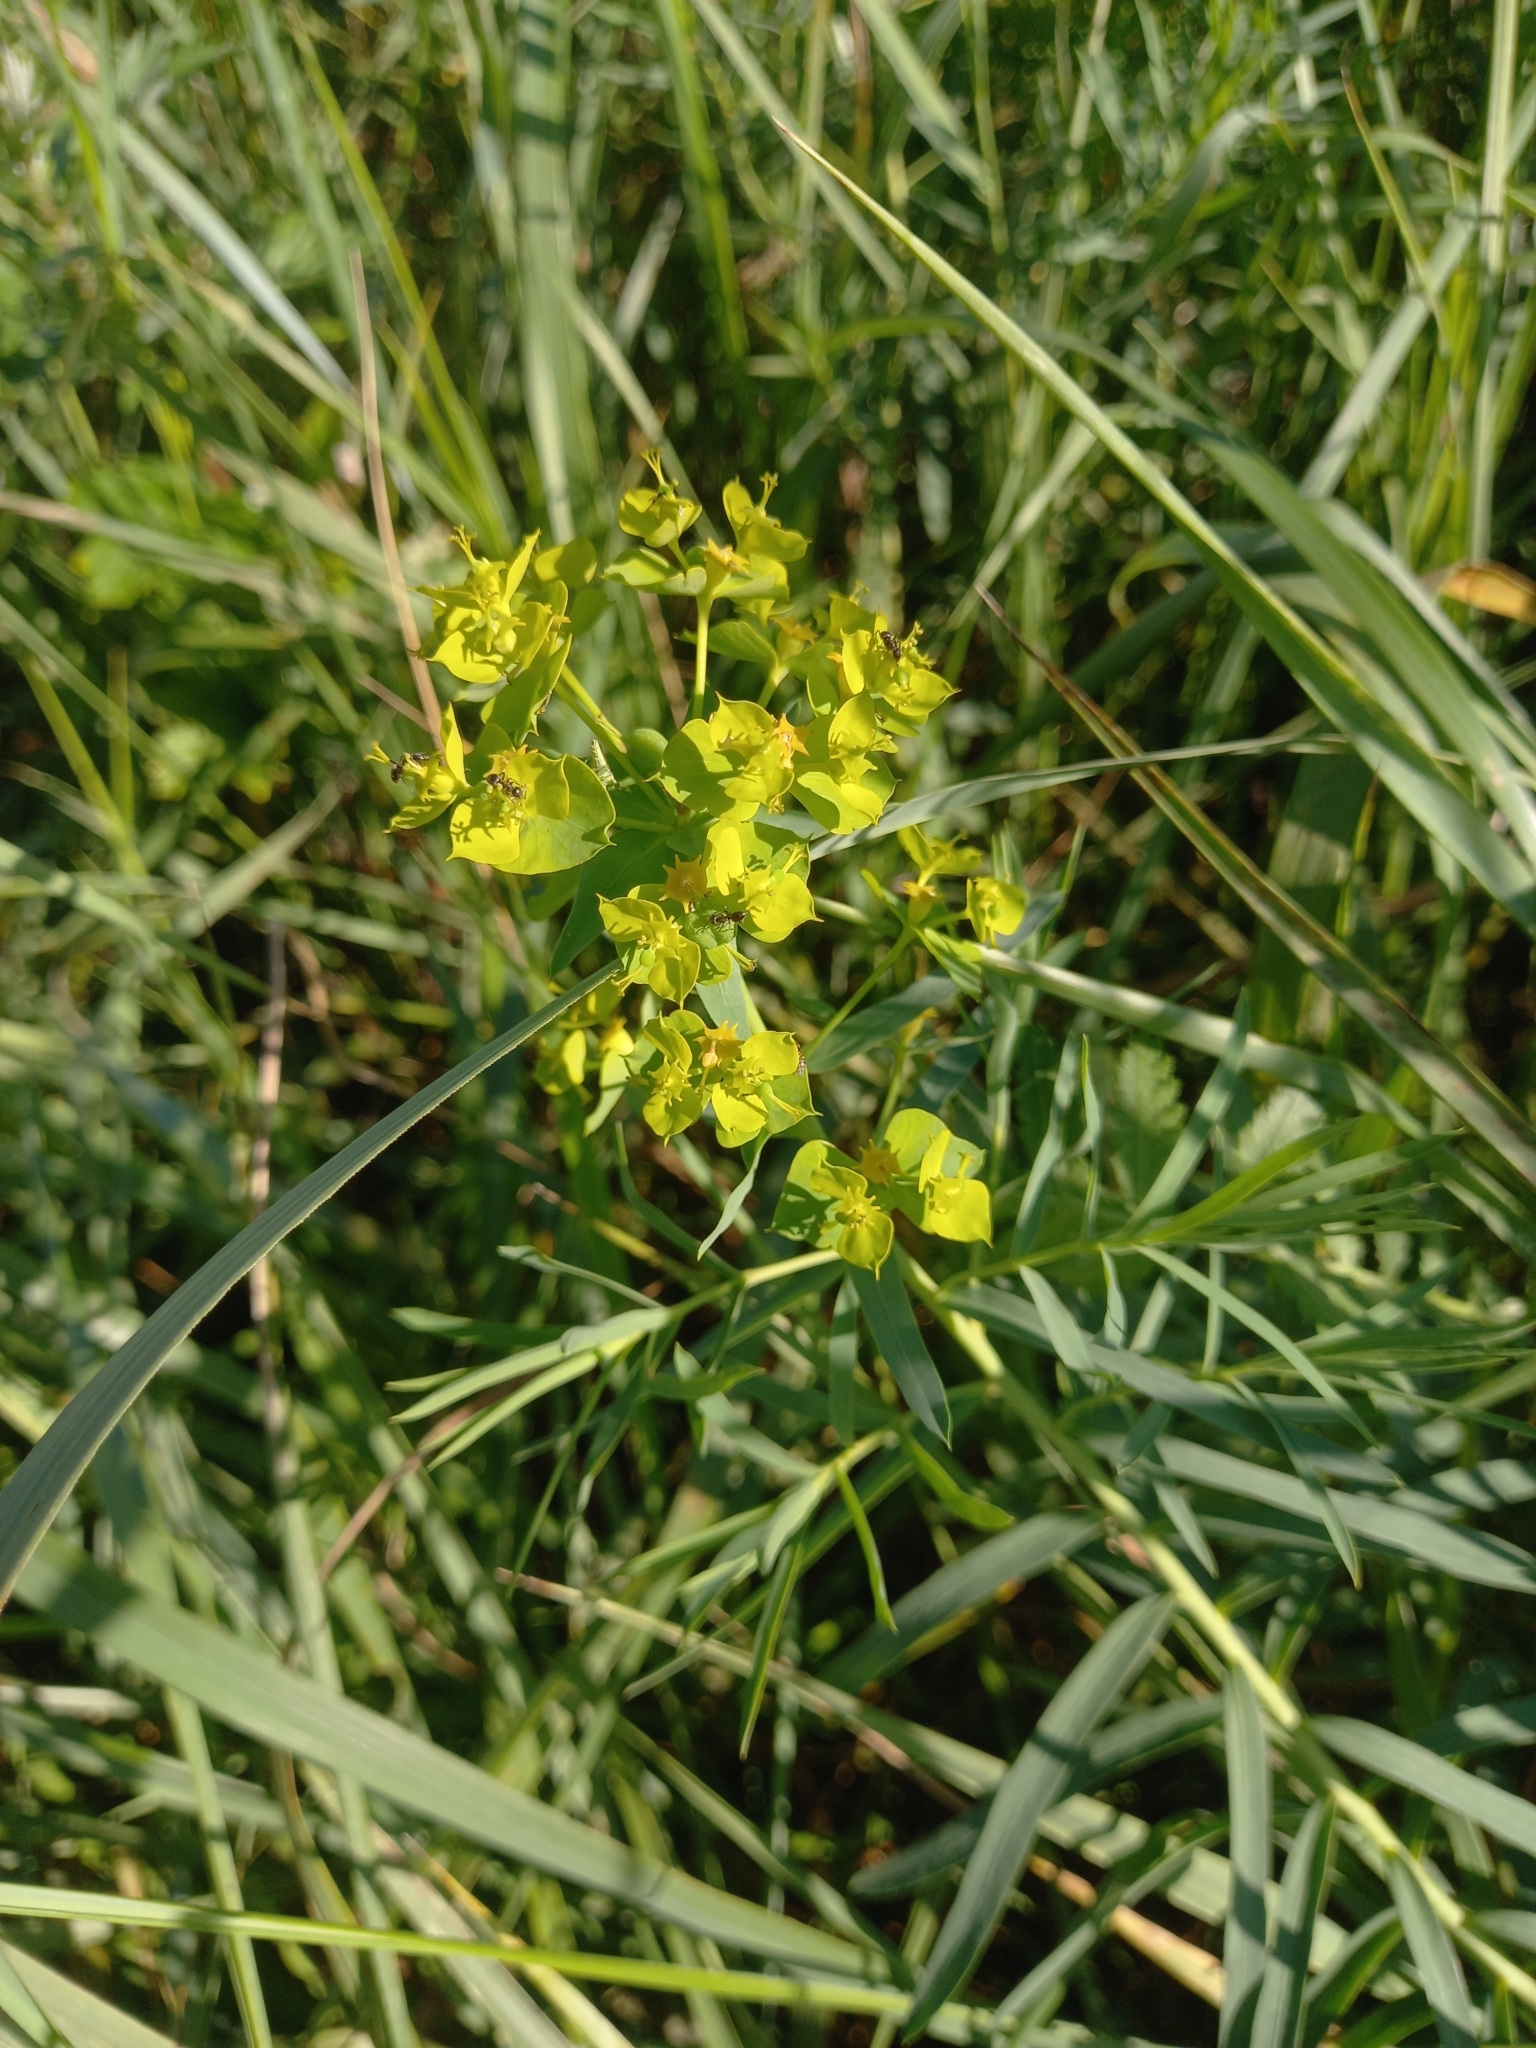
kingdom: Plantae
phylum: Tracheophyta
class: Magnoliopsida
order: Malpighiales
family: Euphorbiaceae
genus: Euphorbia
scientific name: Euphorbia virgata
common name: Leafy spurge
